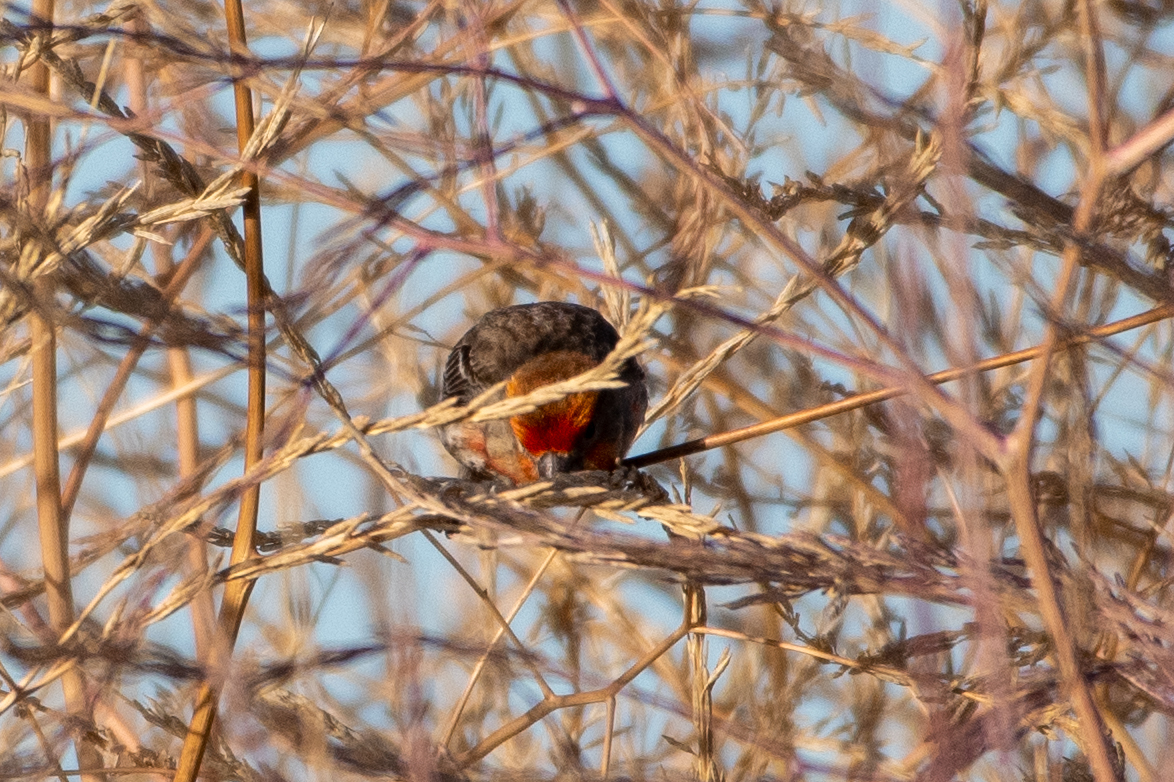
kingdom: Animalia
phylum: Chordata
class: Aves
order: Passeriformes
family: Fringillidae
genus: Haemorhous
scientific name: Haemorhous mexicanus
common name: House finch
